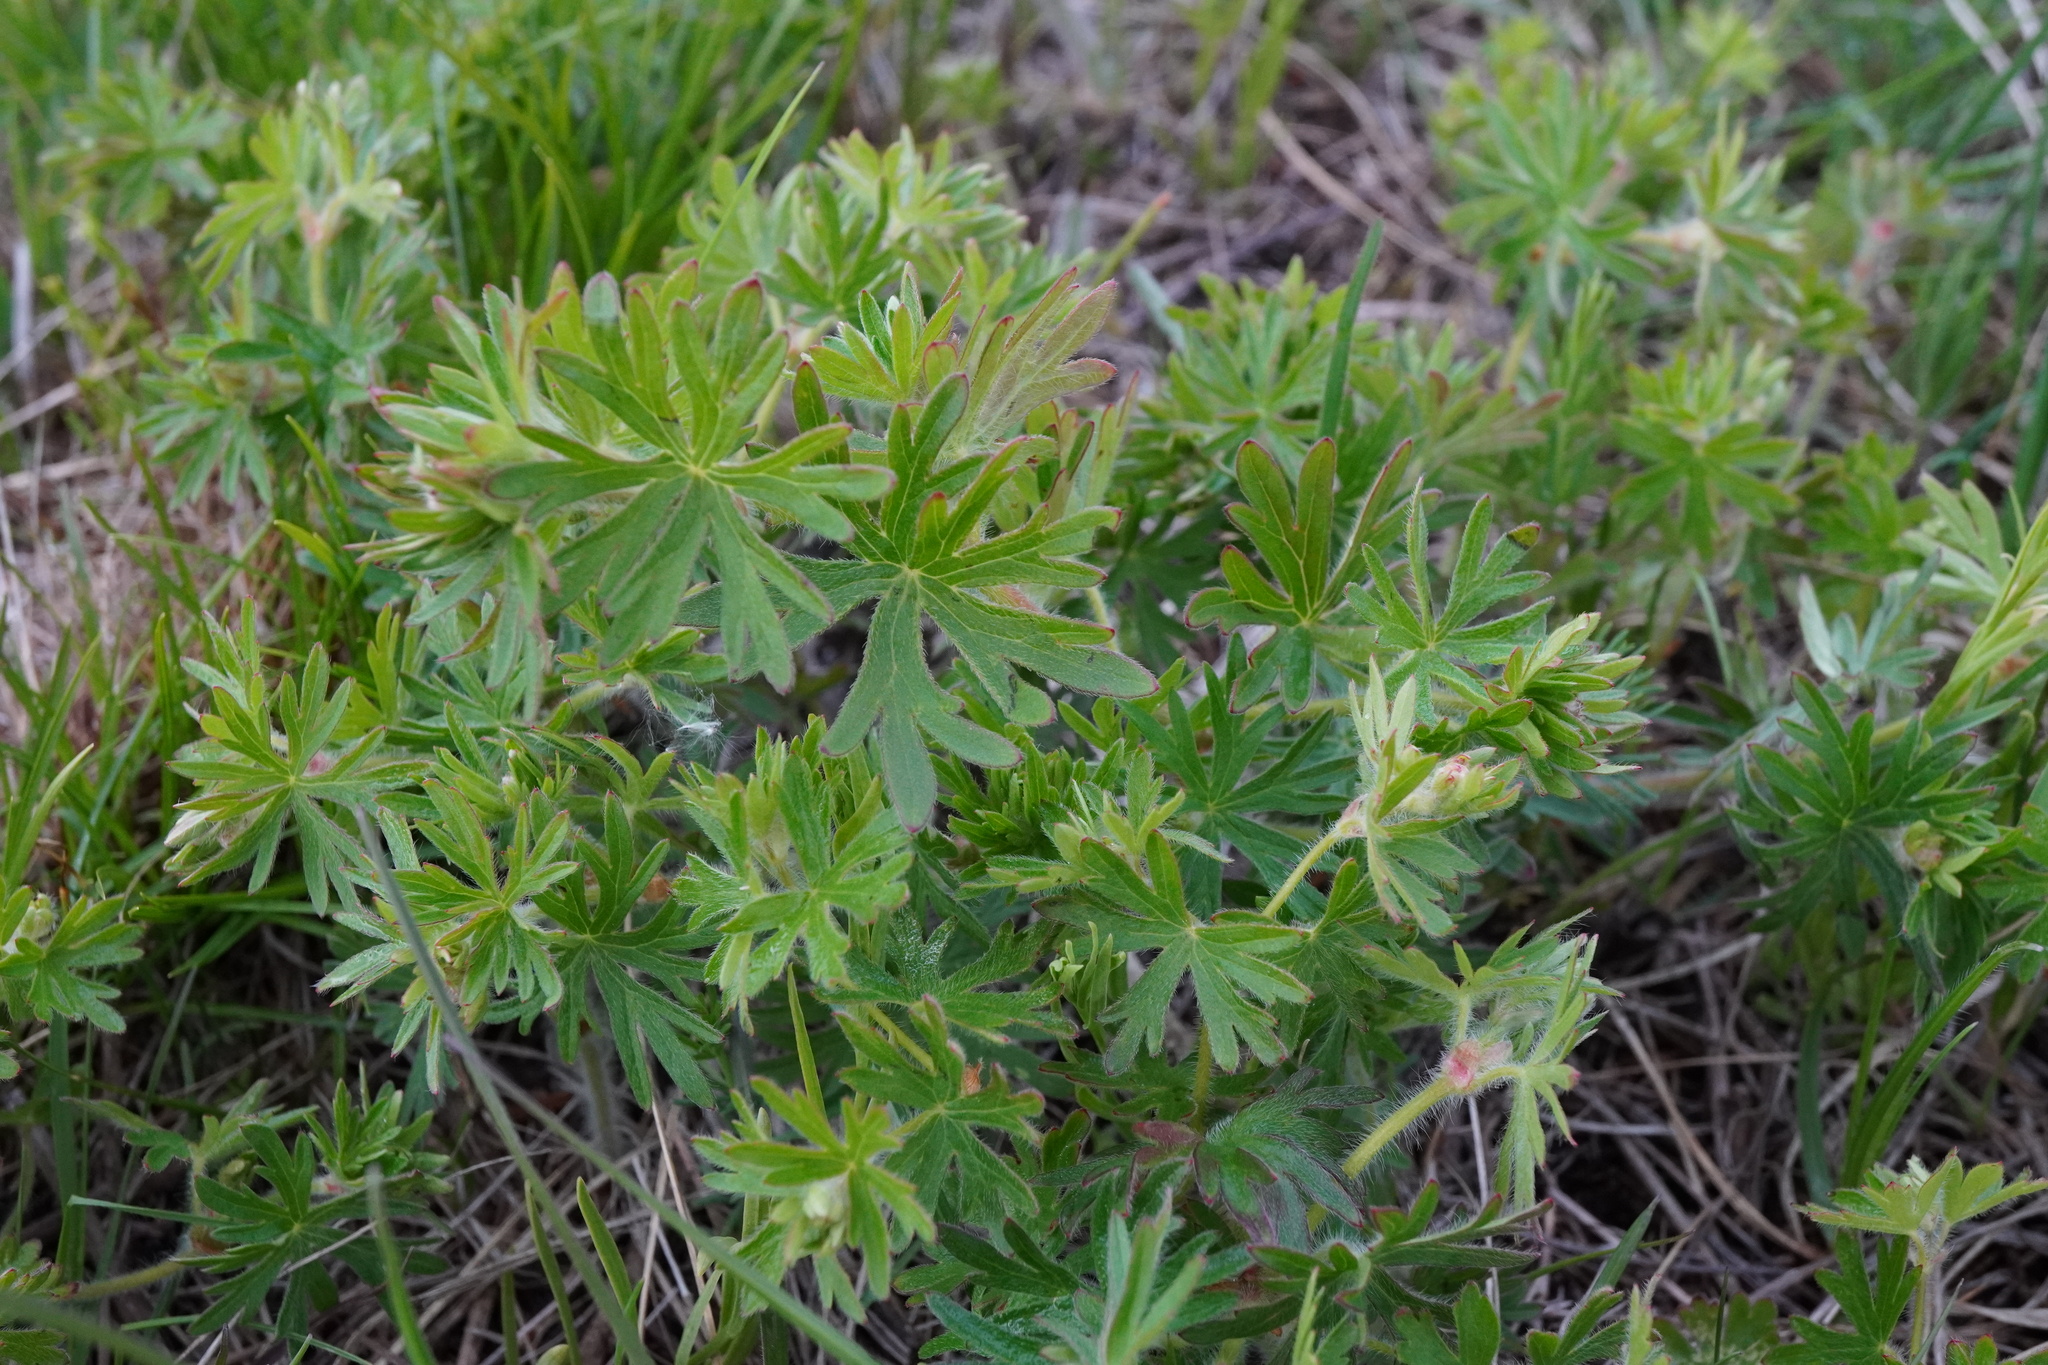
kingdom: Plantae
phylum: Tracheophyta
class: Magnoliopsida
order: Geraniales
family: Geraniaceae
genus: Geranium
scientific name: Geranium sanguineum
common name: Bloody crane's-bill
